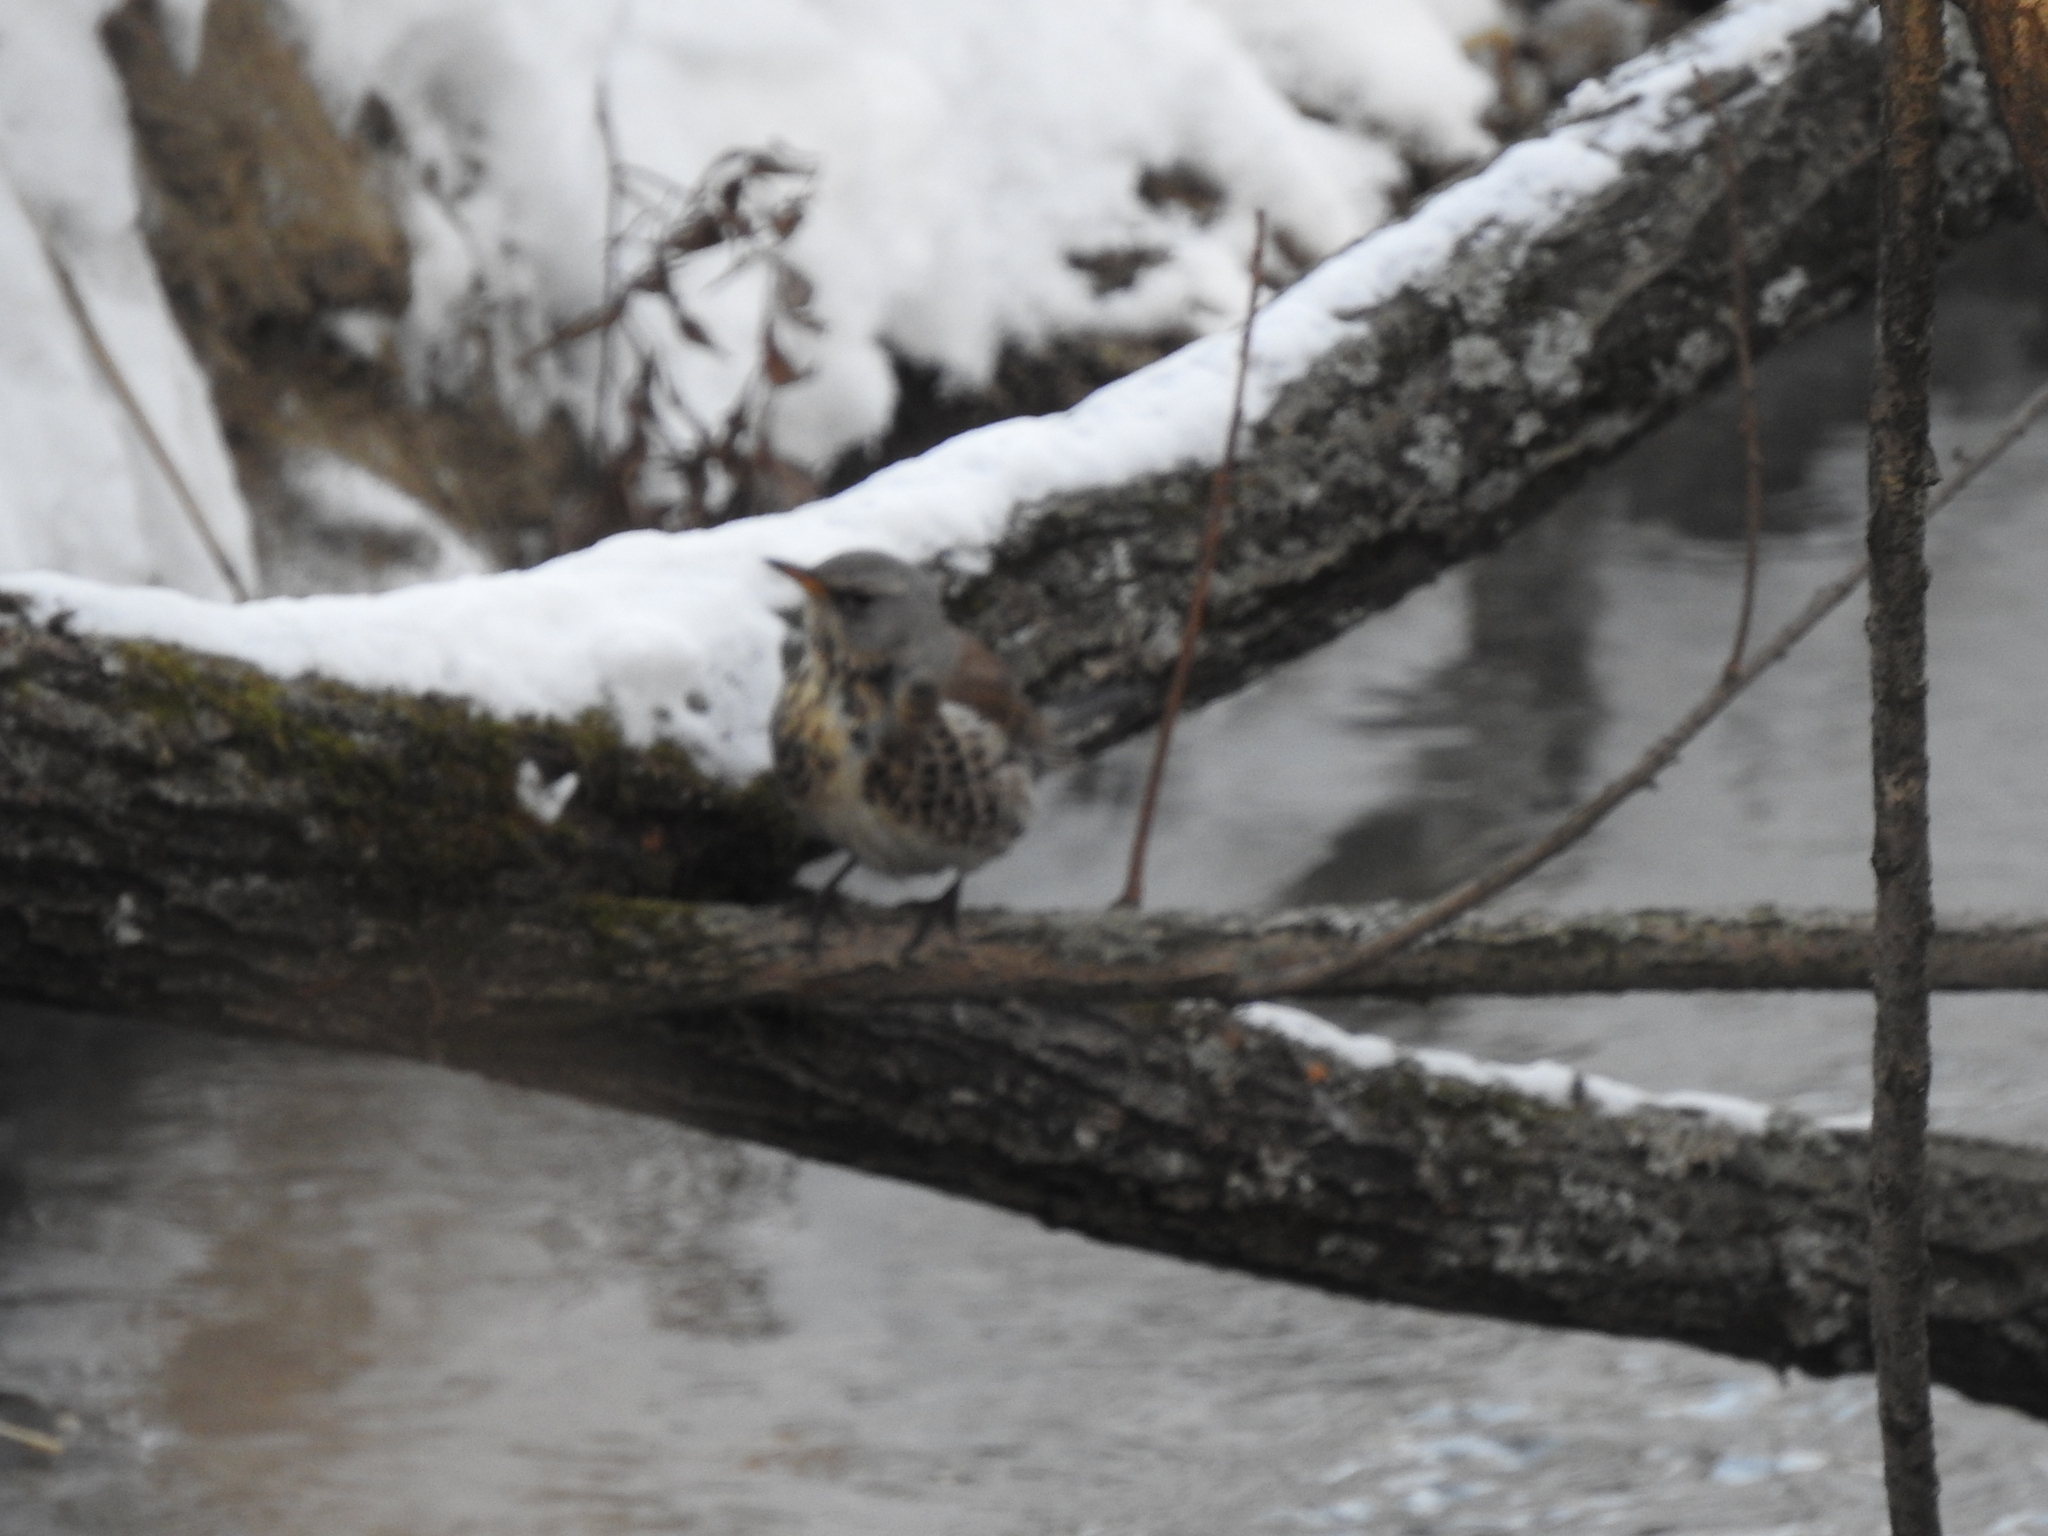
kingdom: Animalia
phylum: Chordata
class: Aves
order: Passeriformes
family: Turdidae
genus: Turdus
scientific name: Turdus pilaris
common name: Fieldfare
